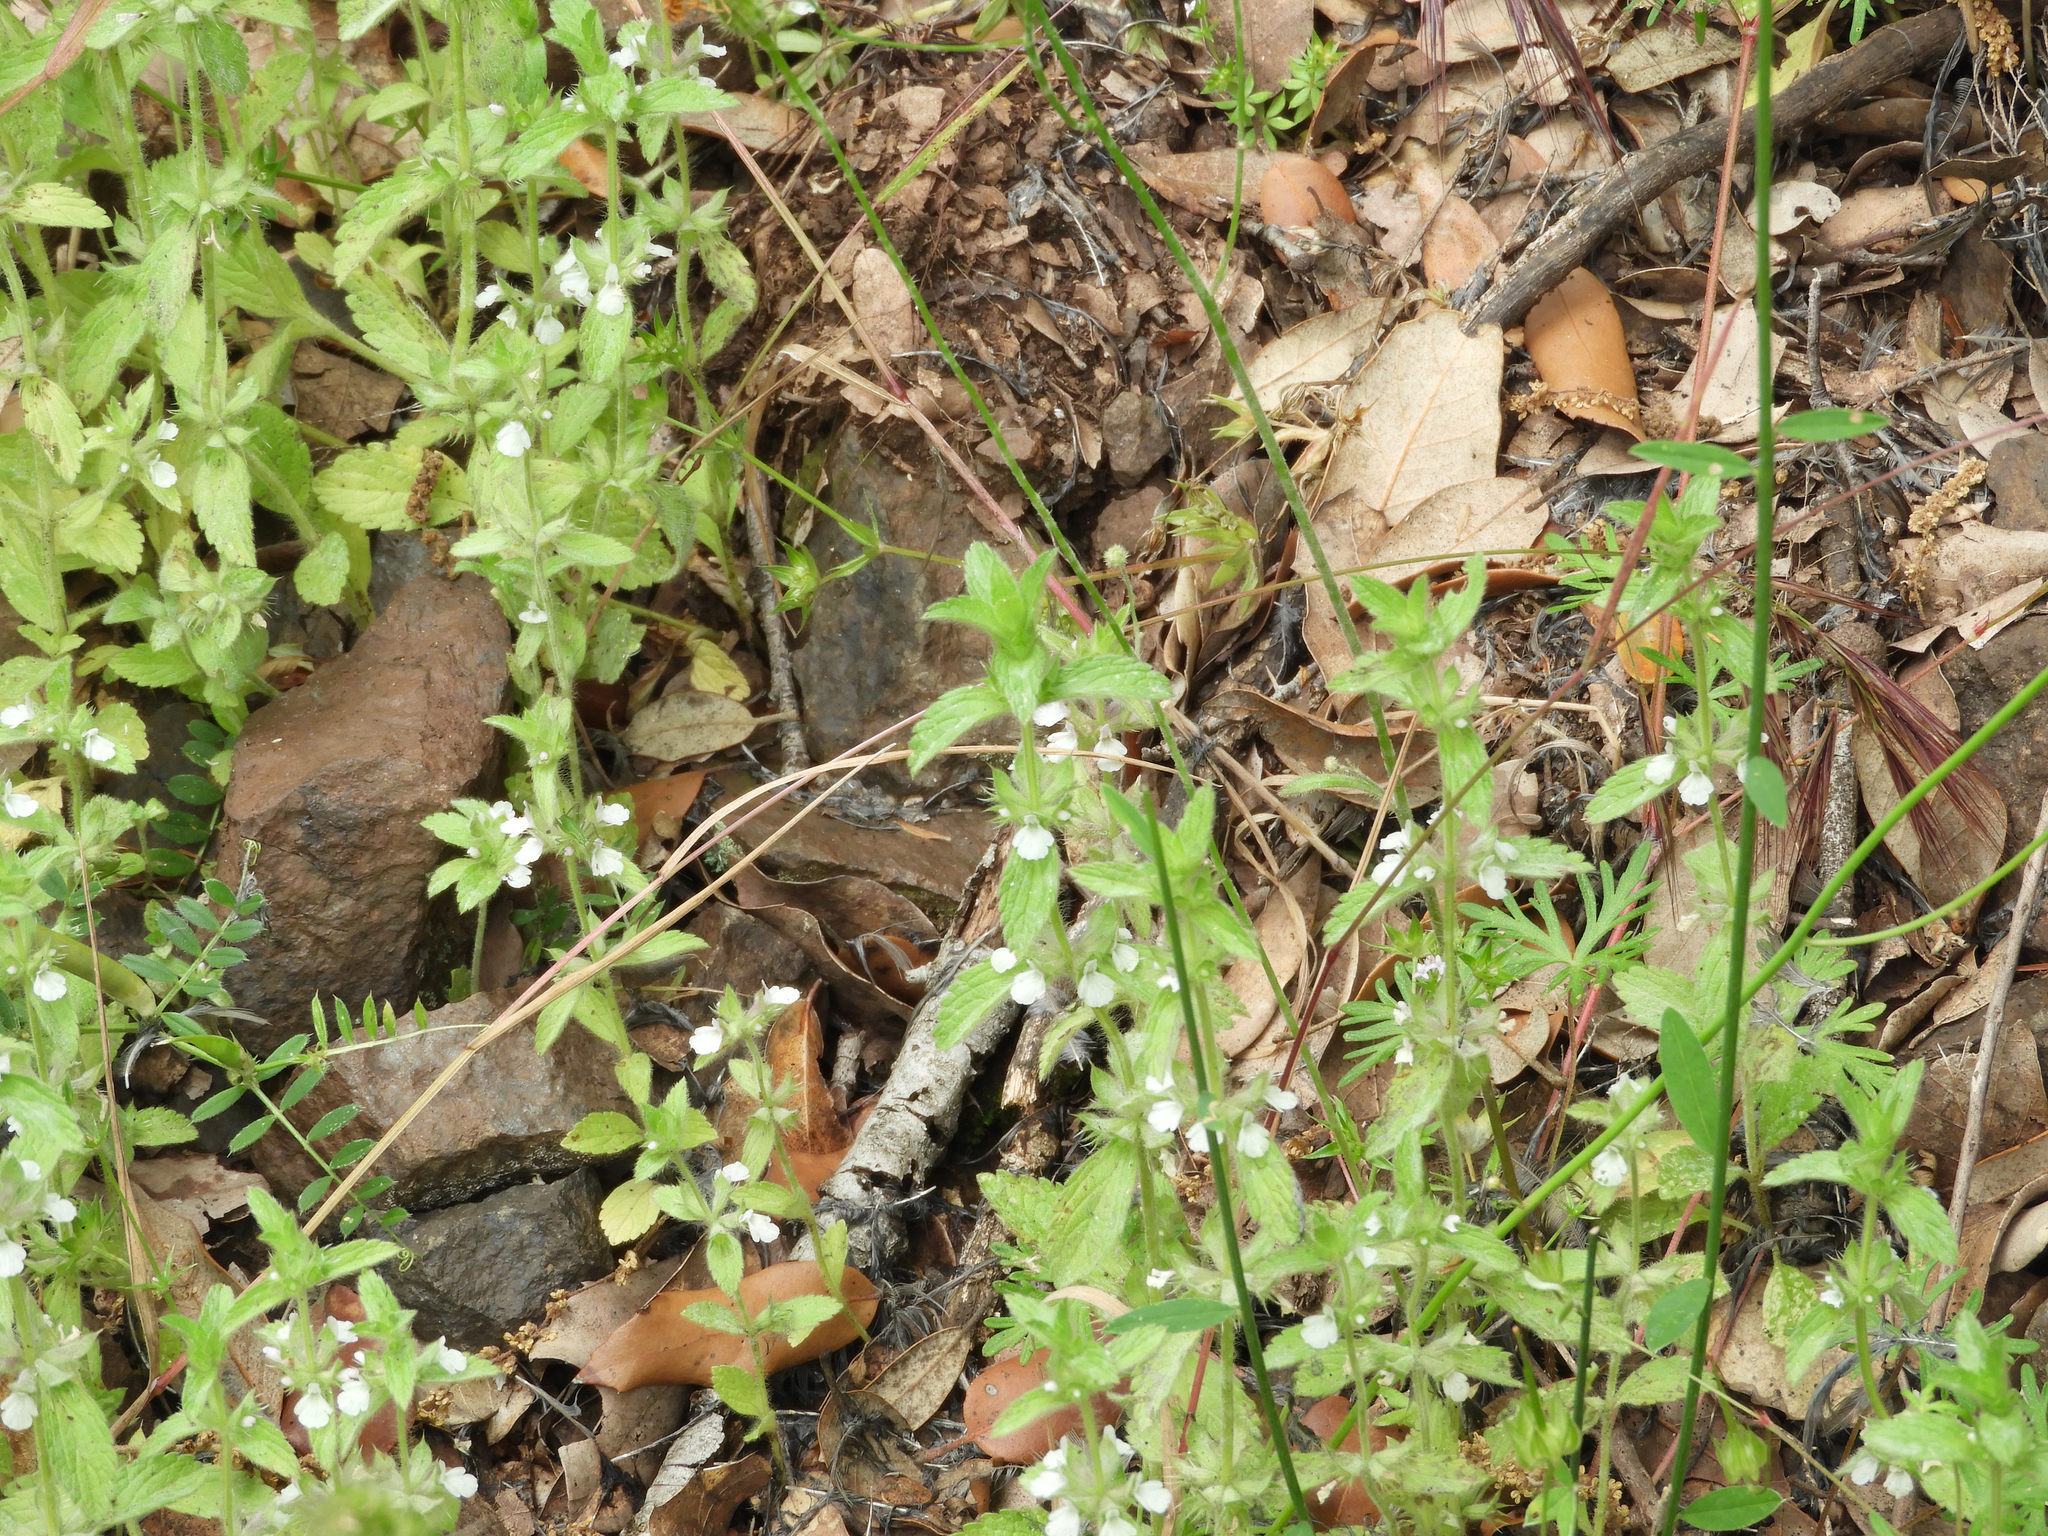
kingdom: Plantae
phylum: Tracheophyta
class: Magnoliopsida
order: Lamiales
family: Lamiaceae
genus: Sideritis
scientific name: Sideritis romana
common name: Simplebeak ironwort
